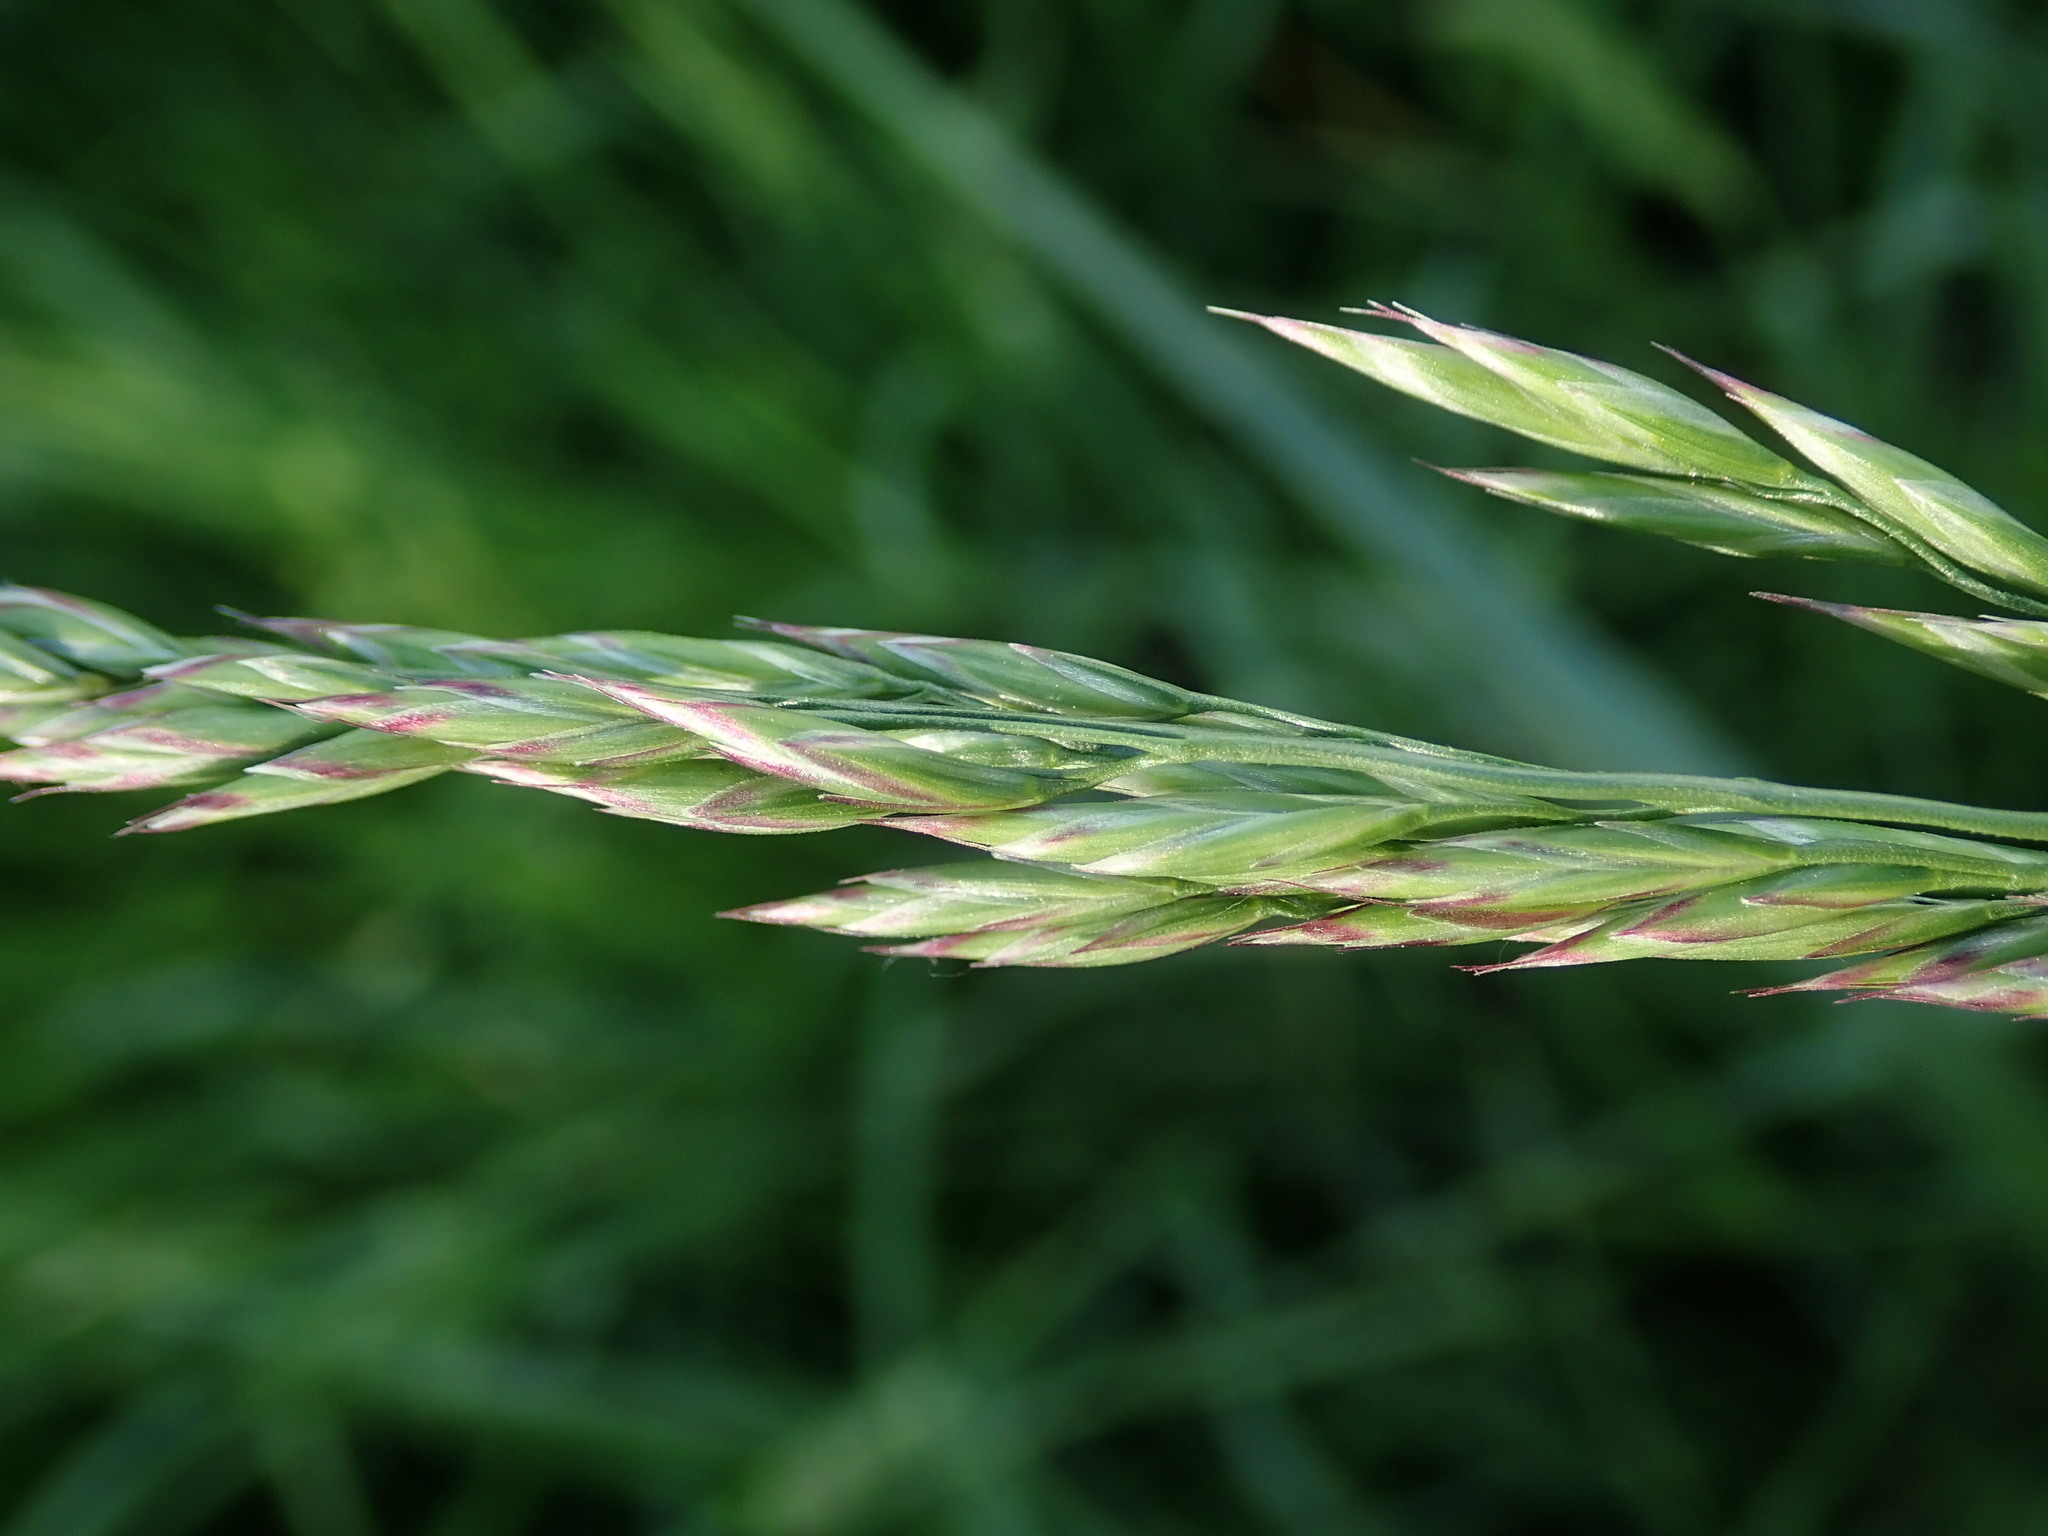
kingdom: Plantae
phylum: Tracheophyta
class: Liliopsida
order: Poales
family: Poaceae
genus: Lolium
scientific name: Lolium pratense
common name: Dover grass
